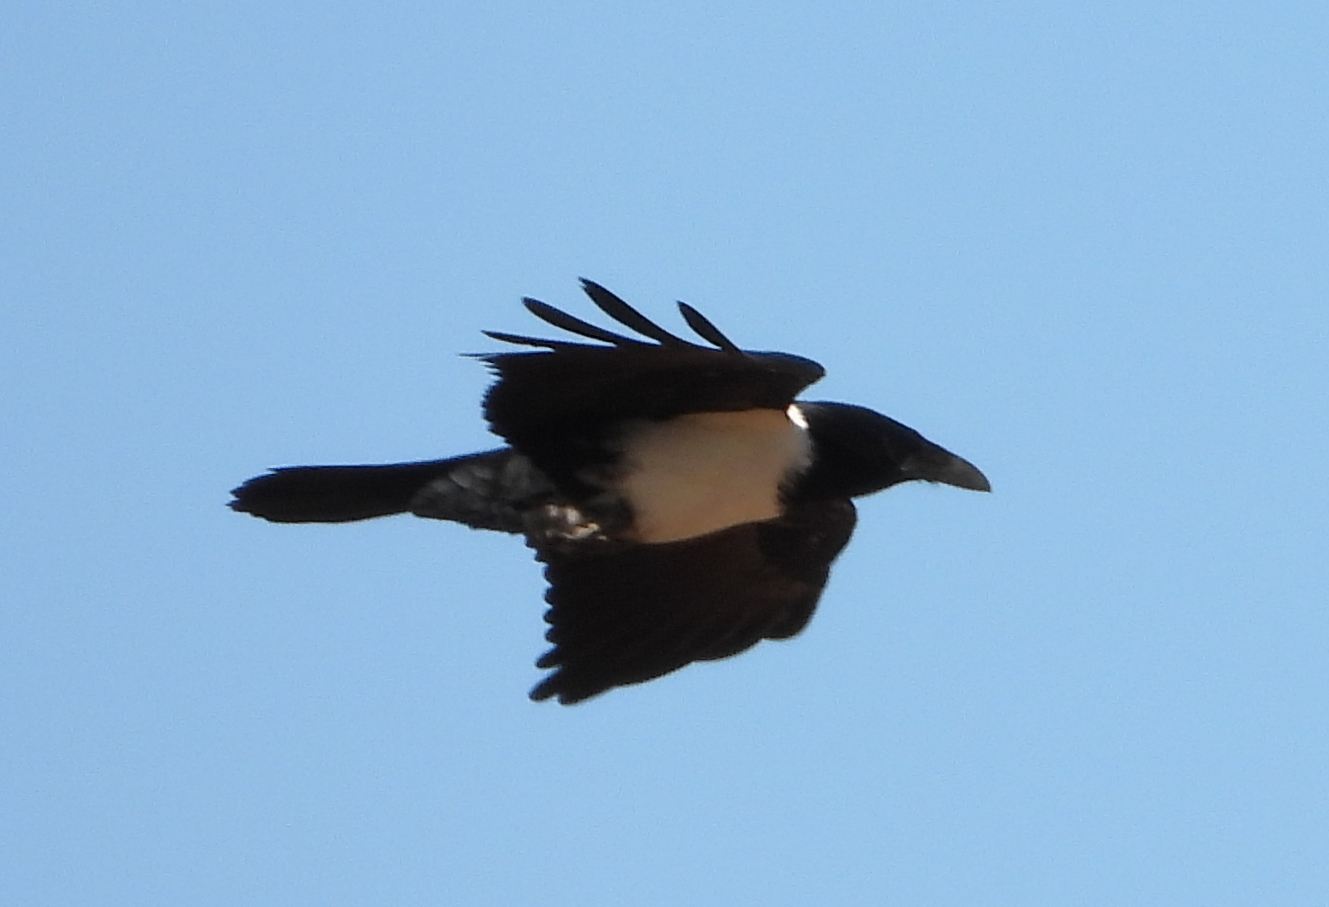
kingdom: Animalia
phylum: Chordata
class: Aves
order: Passeriformes
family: Corvidae
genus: Corvus
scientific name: Corvus albus
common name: Pied crow
